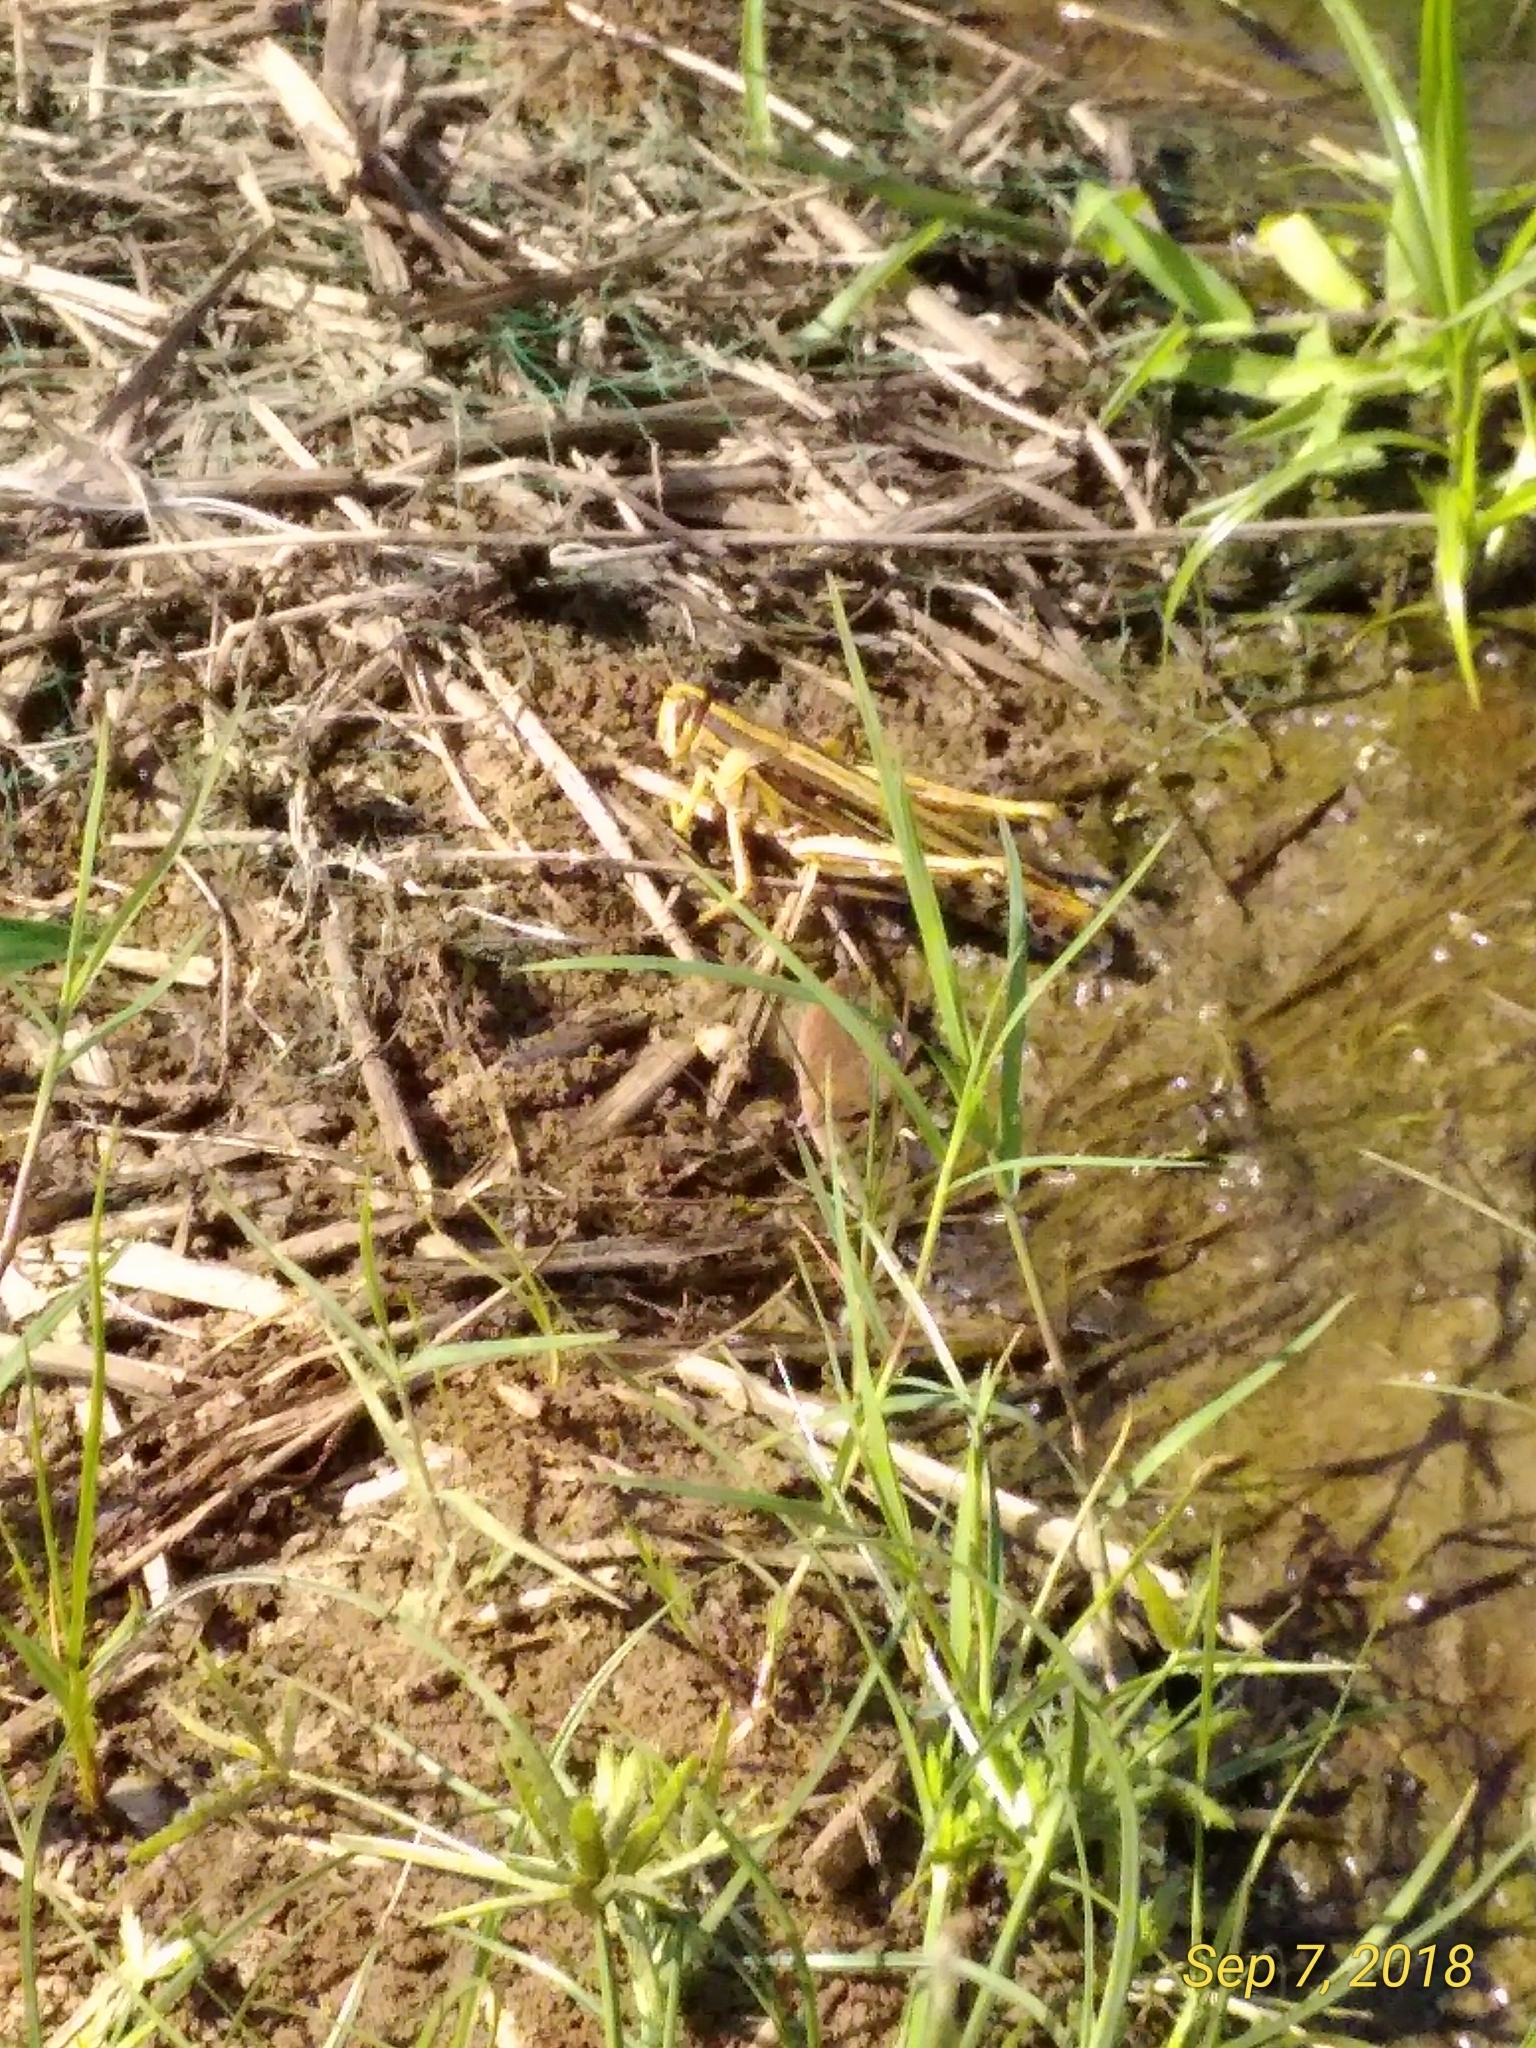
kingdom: Animalia
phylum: Arthropoda
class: Insecta
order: Orthoptera
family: Acrididae
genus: Schistocerca
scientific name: Schistocerca americana
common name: American bird locust
